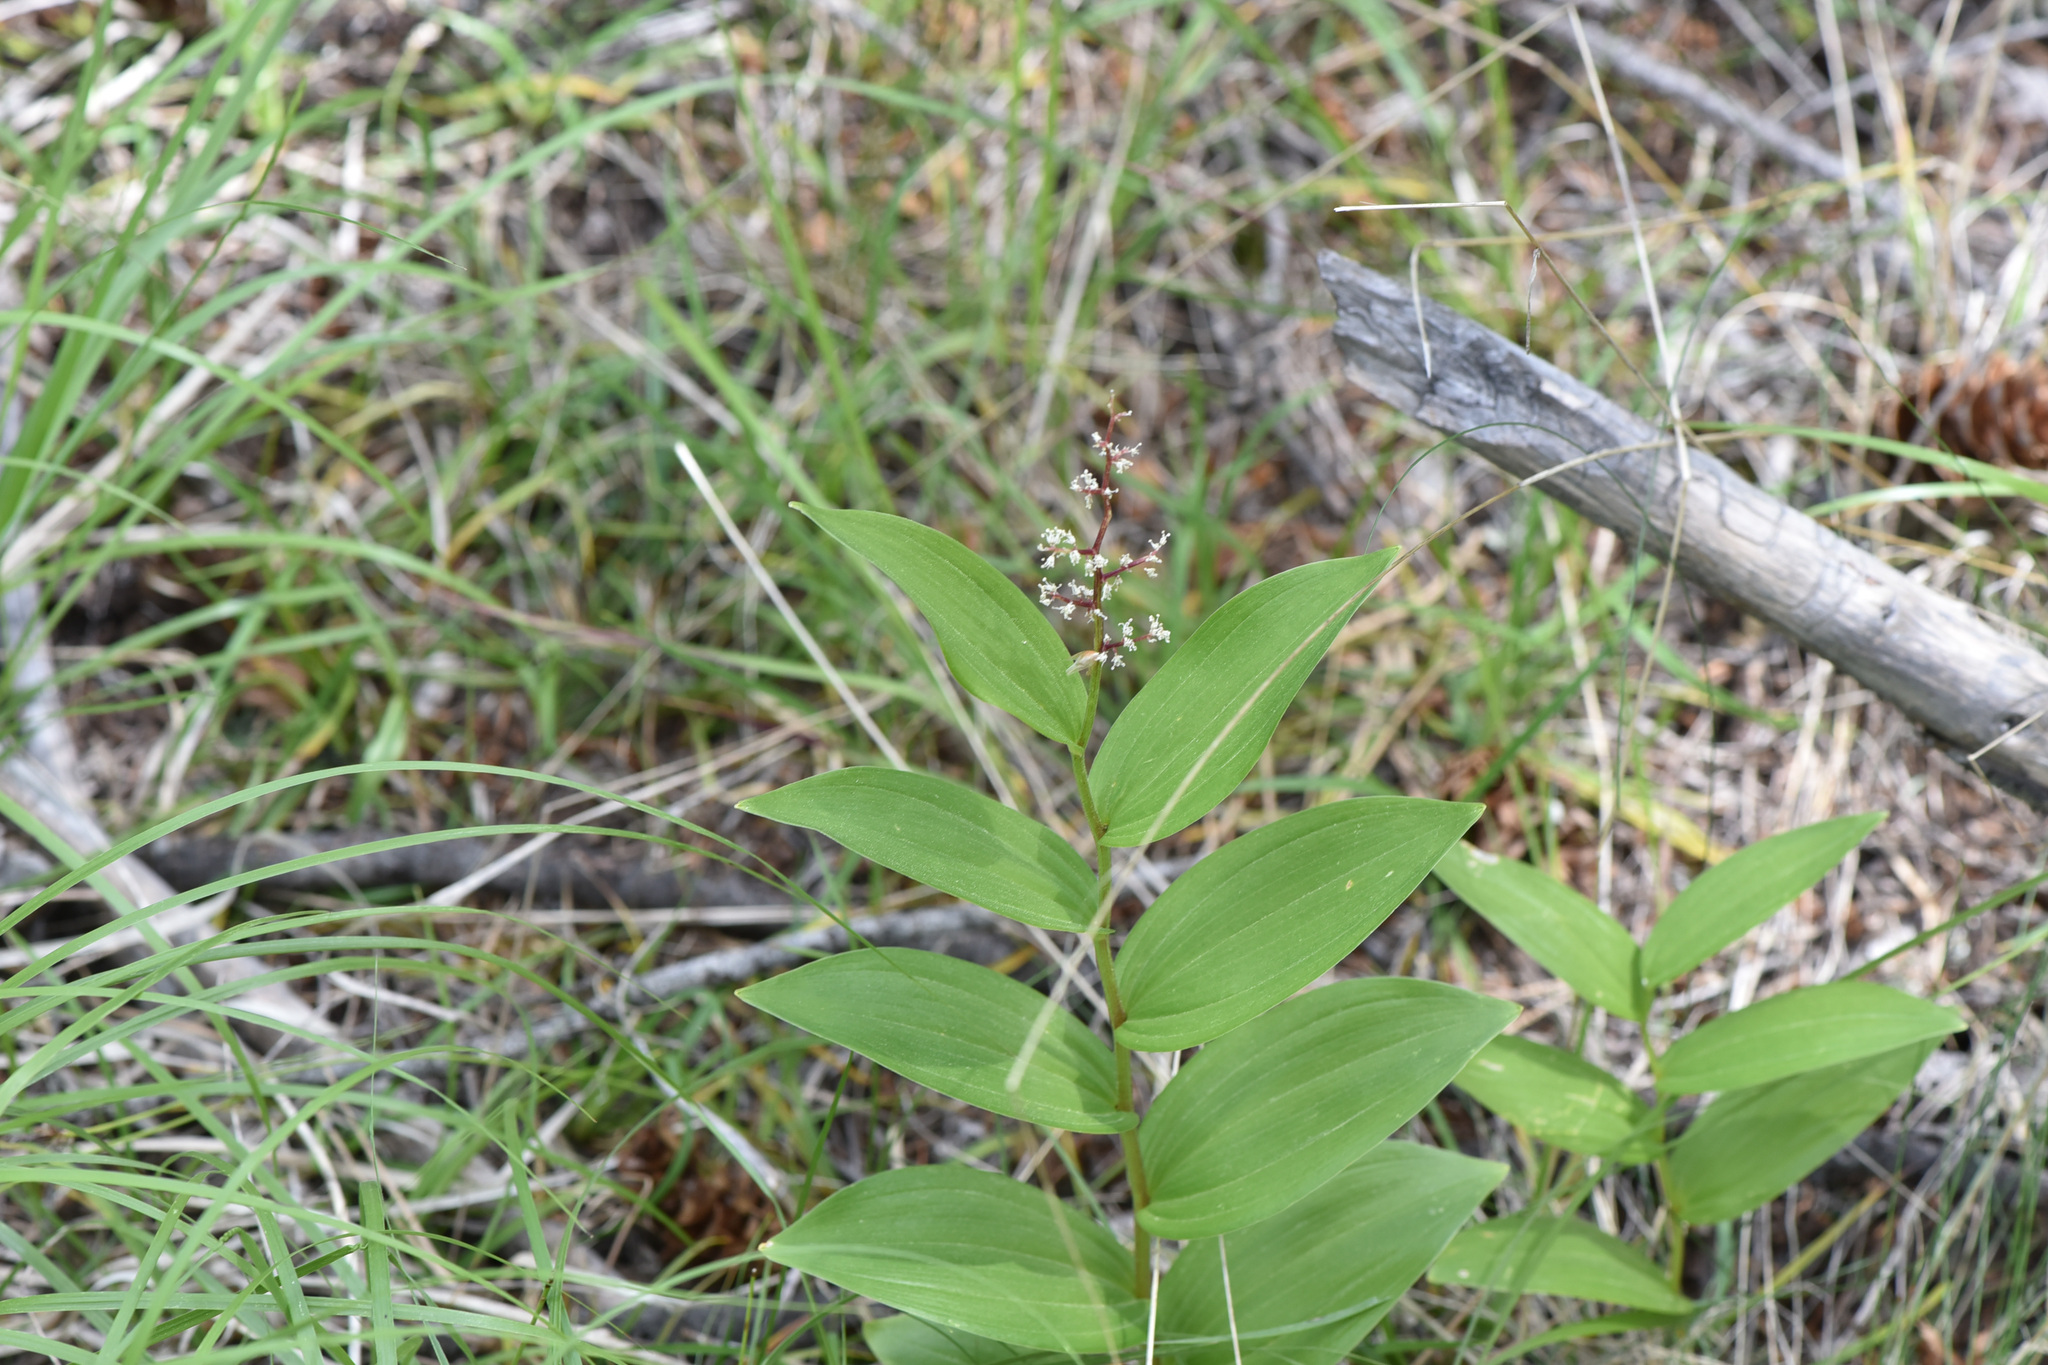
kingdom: Plantae
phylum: Tracheophyta
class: Liliopsida
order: Asparagales
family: Asparagaceae
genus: Maianthemum
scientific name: Maianthemum racemosum
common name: False spikenard
